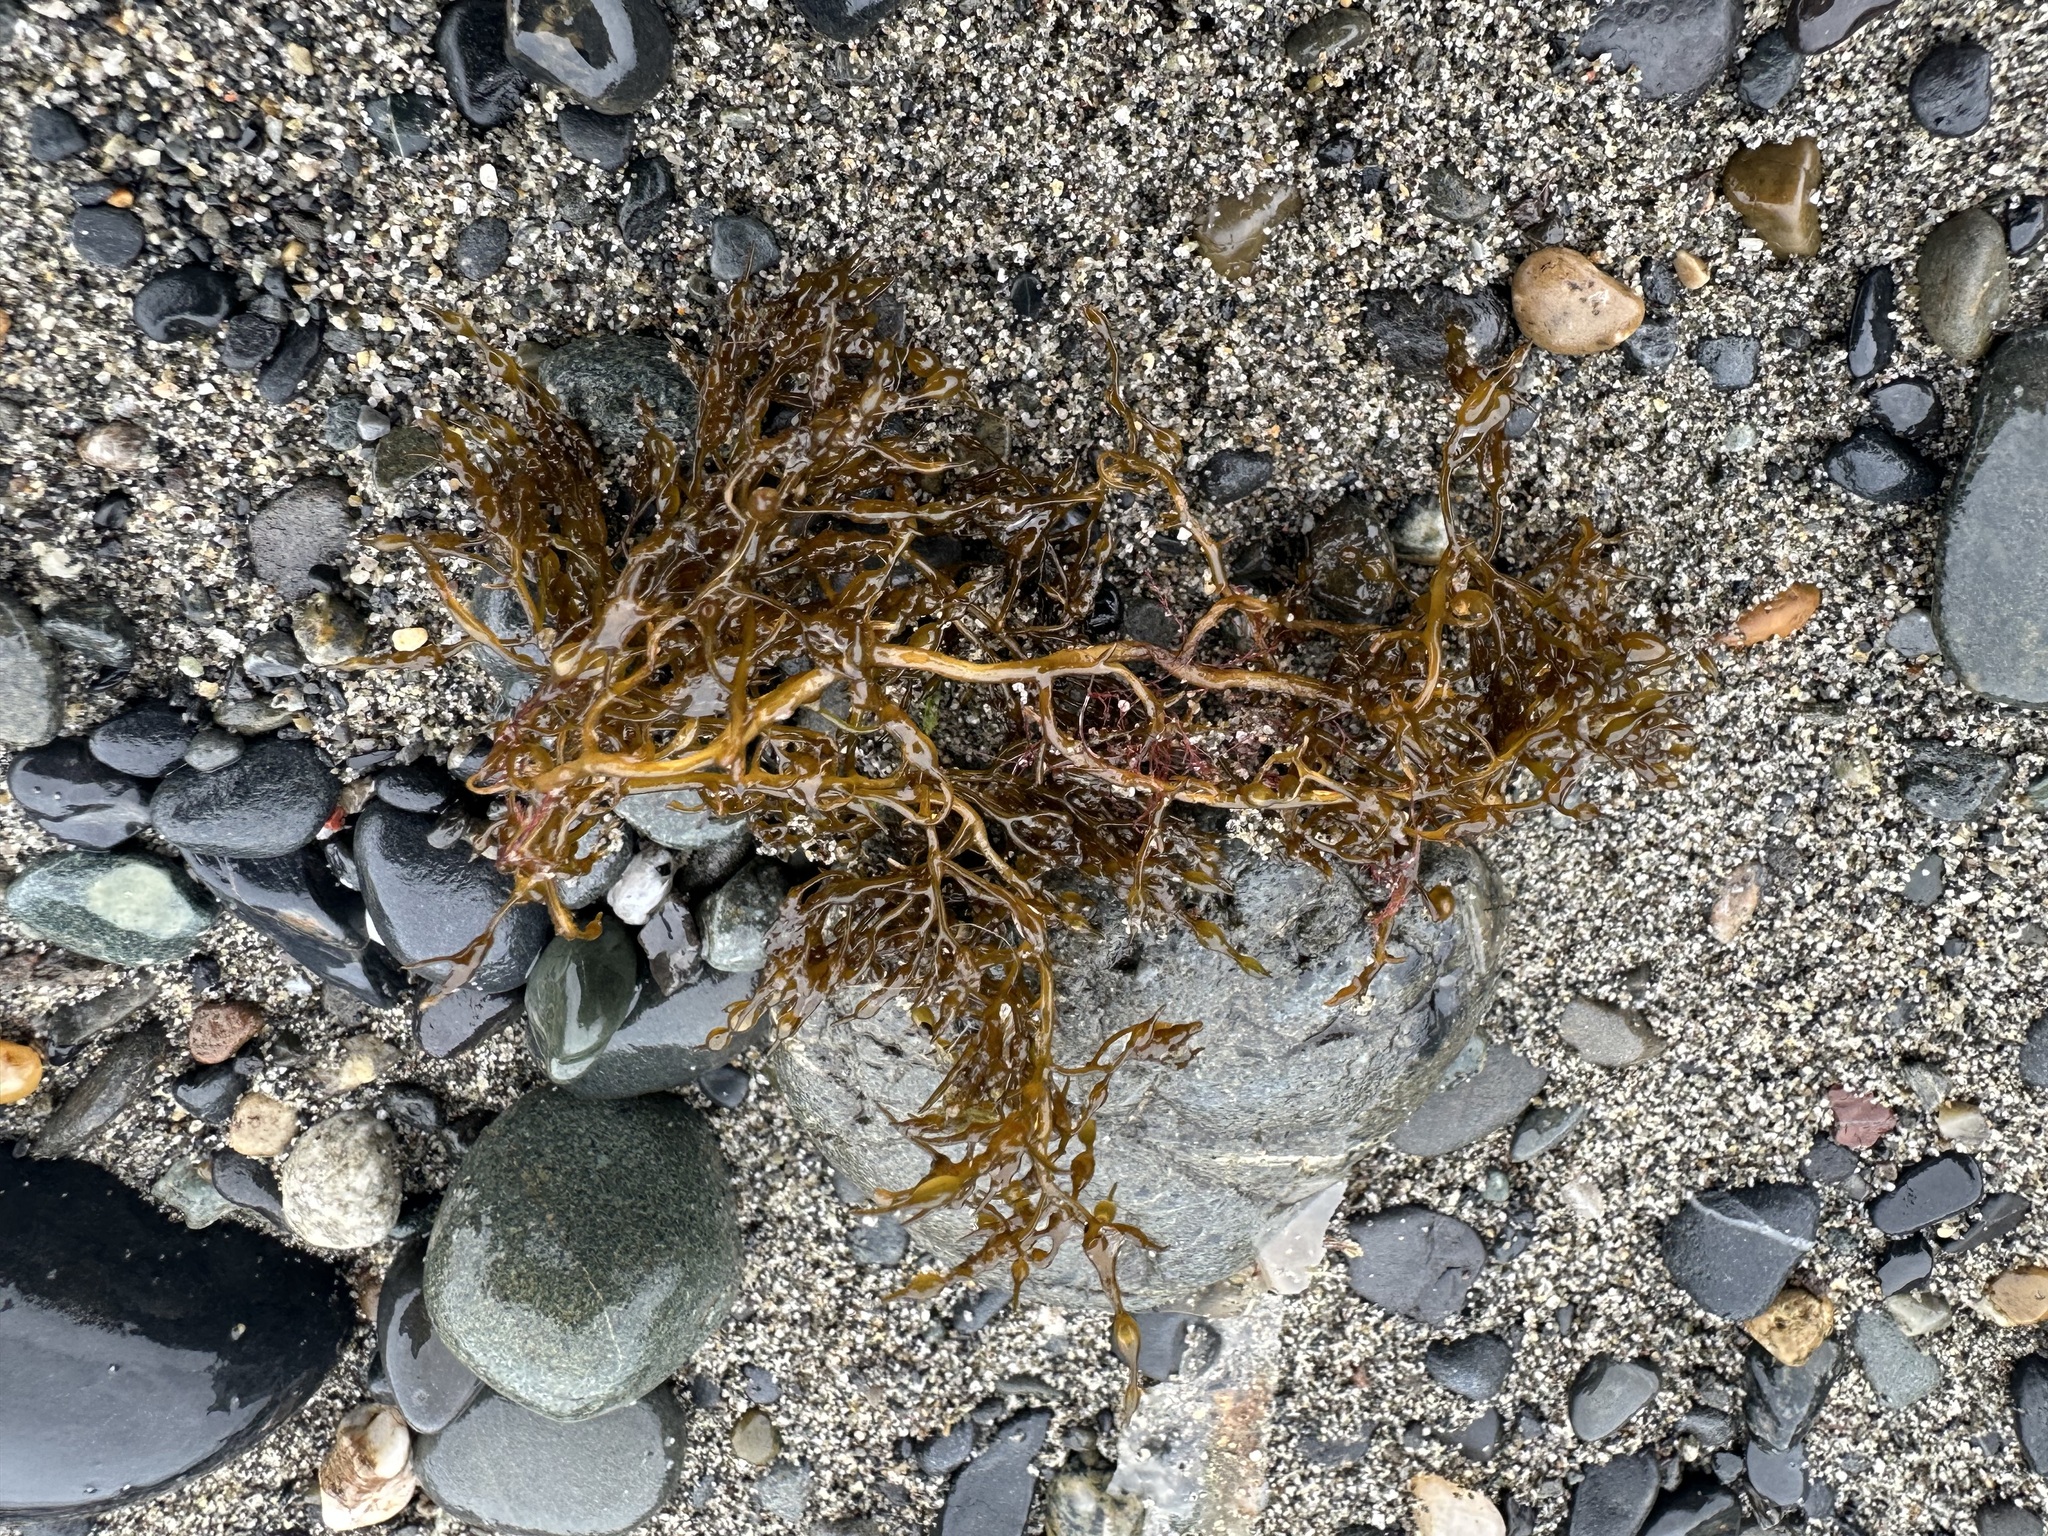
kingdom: Chromista
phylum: Ochrophyta
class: Phaeophyceae
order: Fucales
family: Sargassaceae
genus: Stephanocystis
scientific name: Stephanocystis geminata
